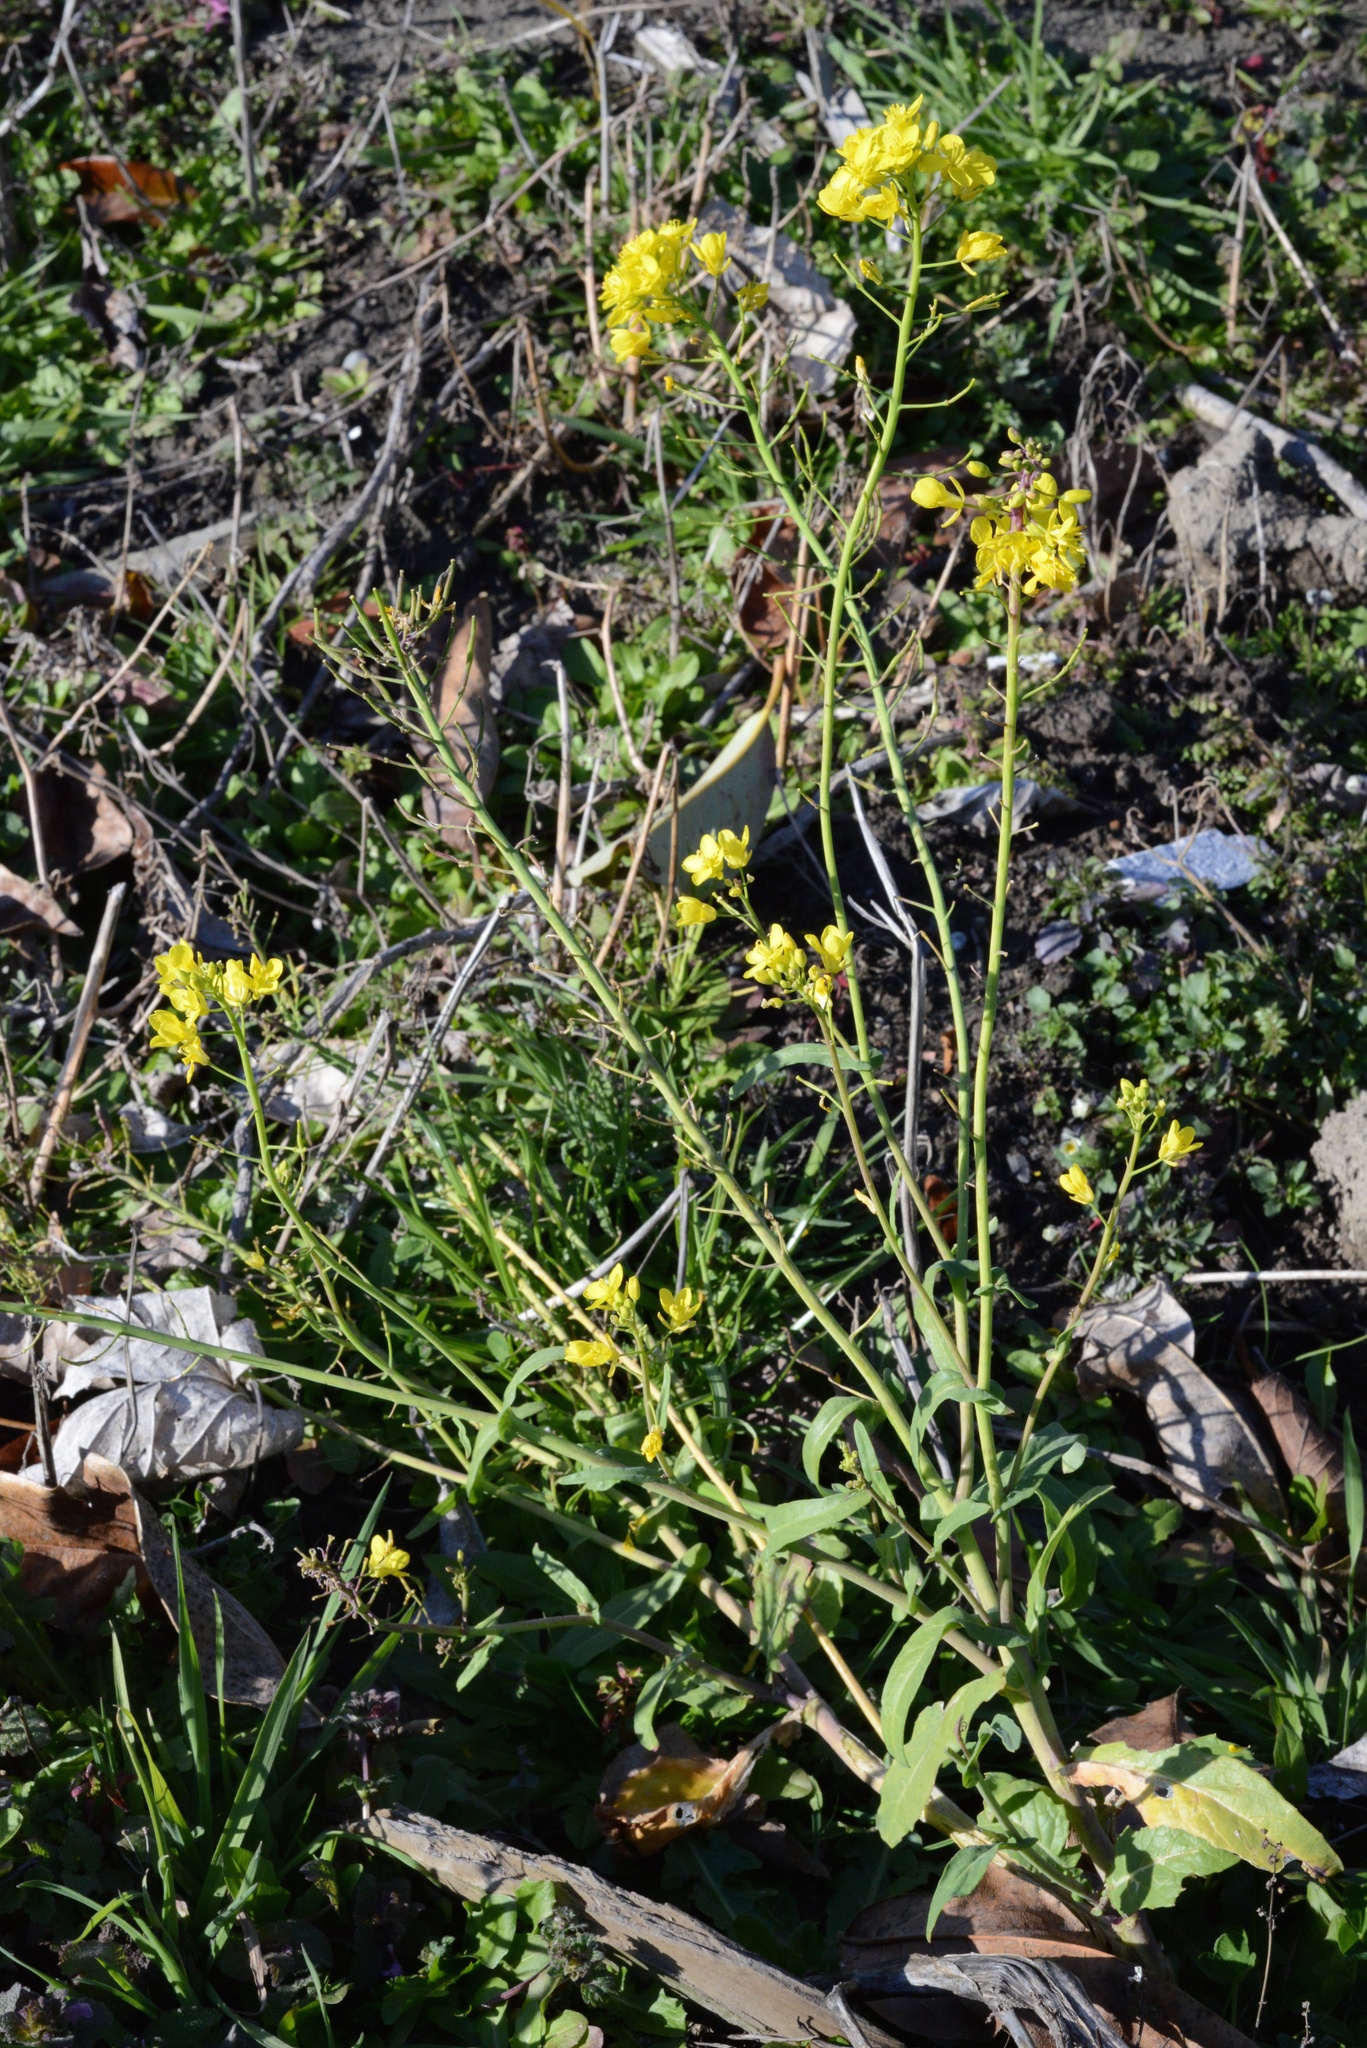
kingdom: Plantae
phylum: Tracheophyta
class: Magnoliopsida
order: Brassicales
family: Brassicaceae
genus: Brassica
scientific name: Brassica rapa
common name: Field mustard
